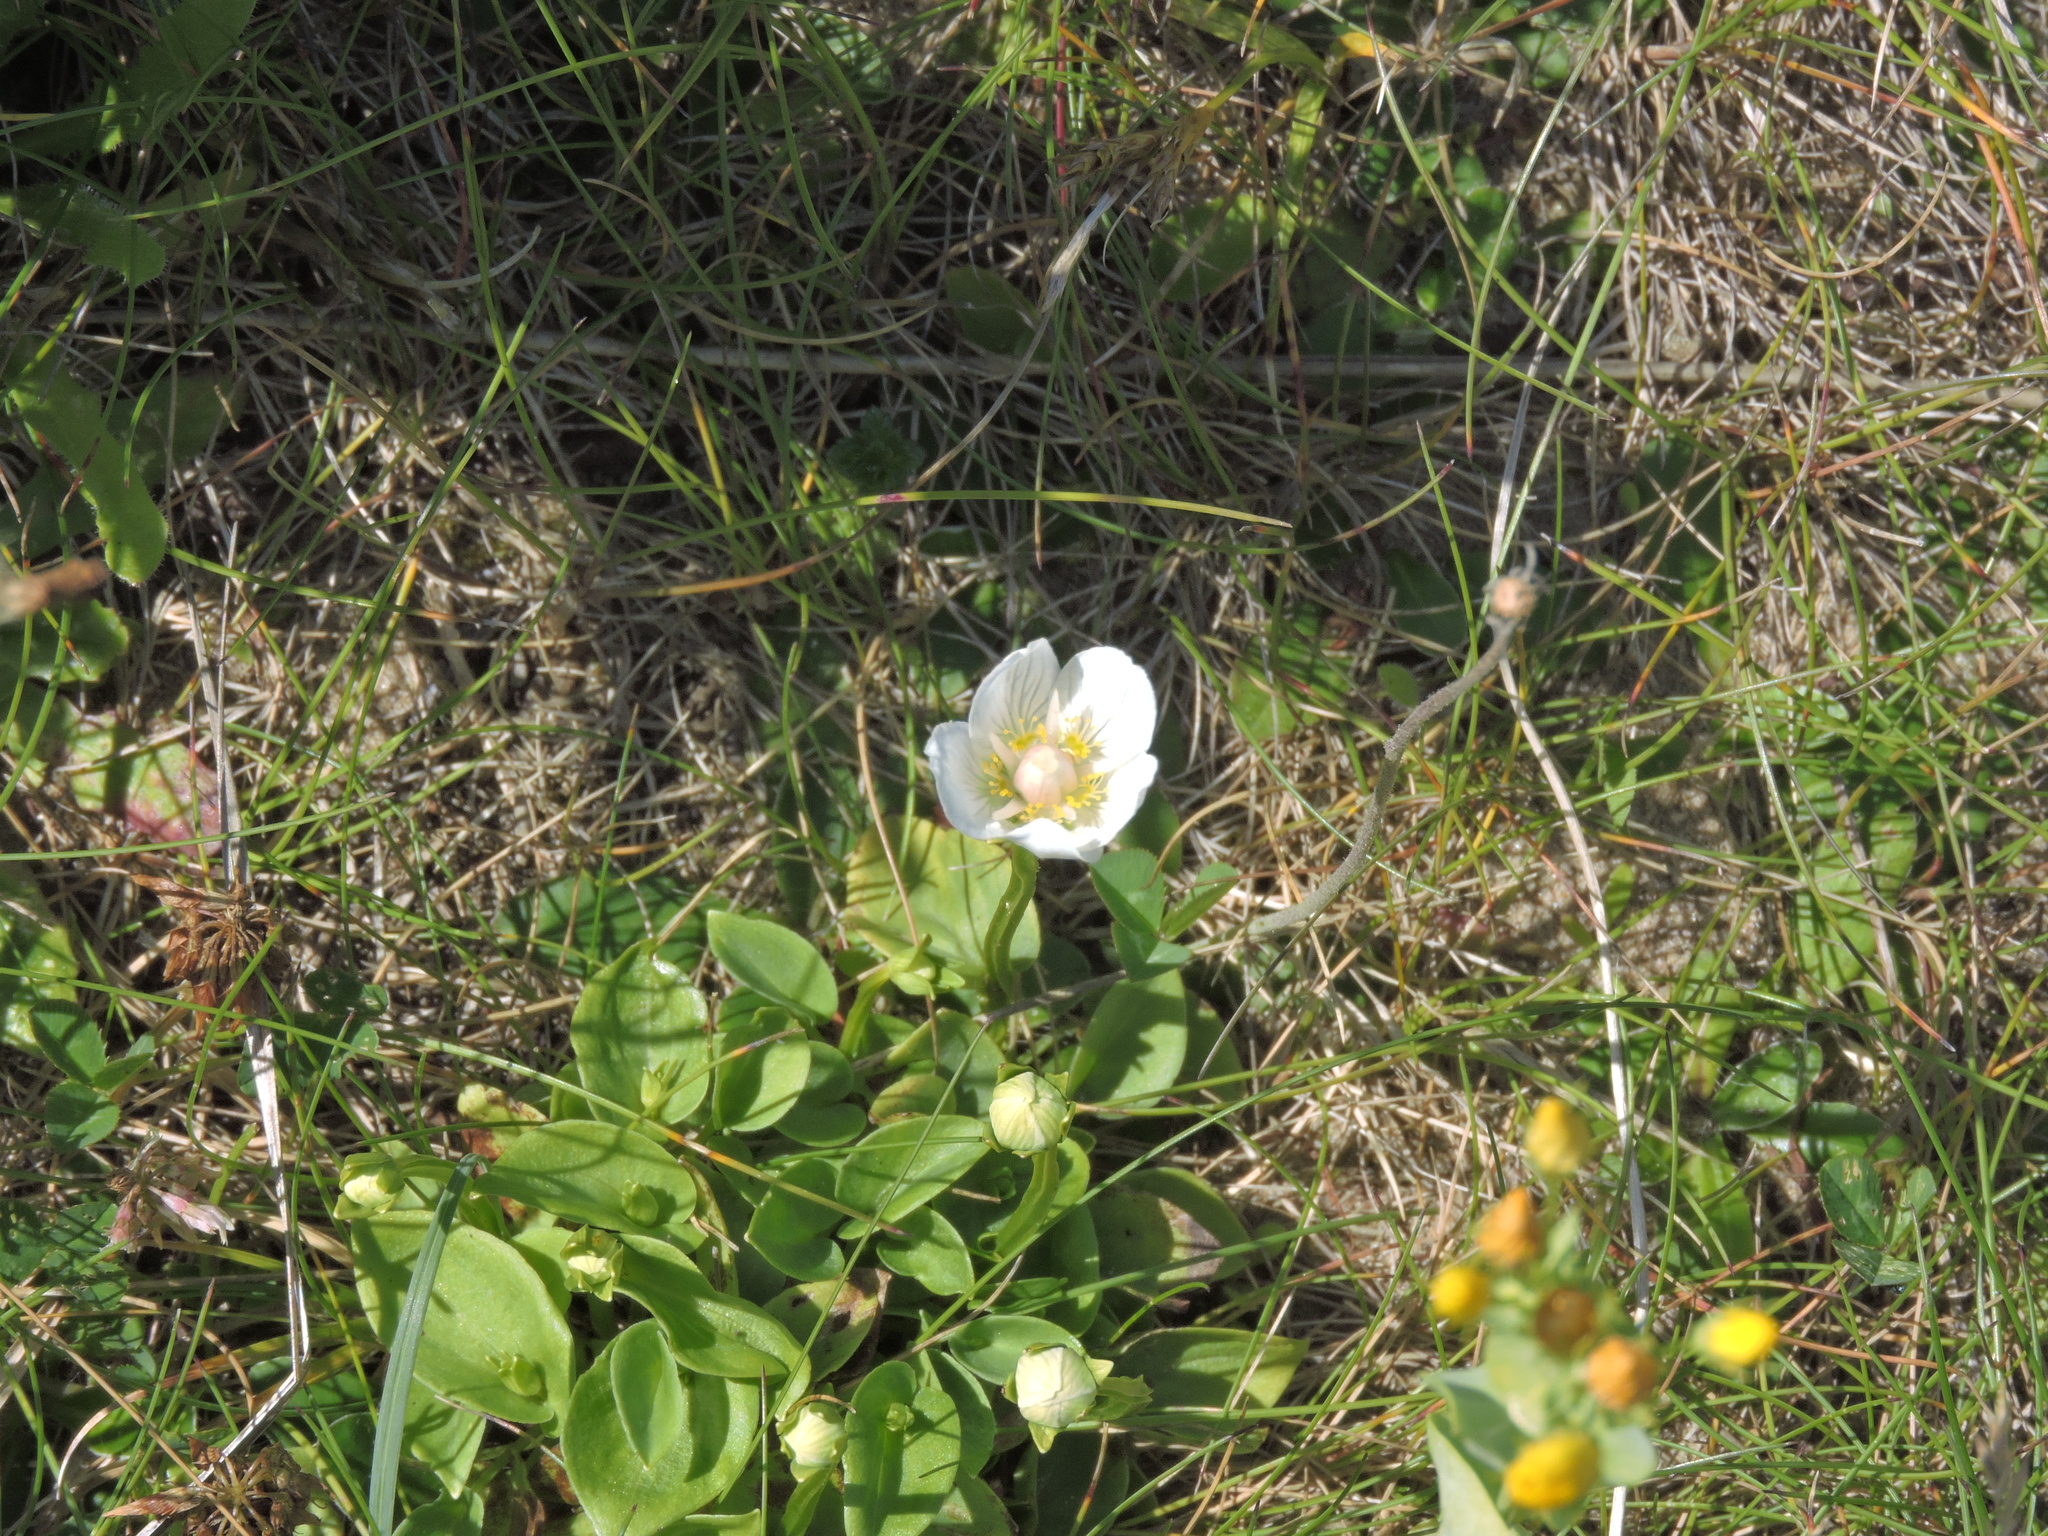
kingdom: Plantae
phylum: Tracheophyta
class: Magnoliopsida
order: Celastrales
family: Parnassiaceae
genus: Parnassia
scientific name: Parnassia palustris
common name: Grass-of-parnassus
